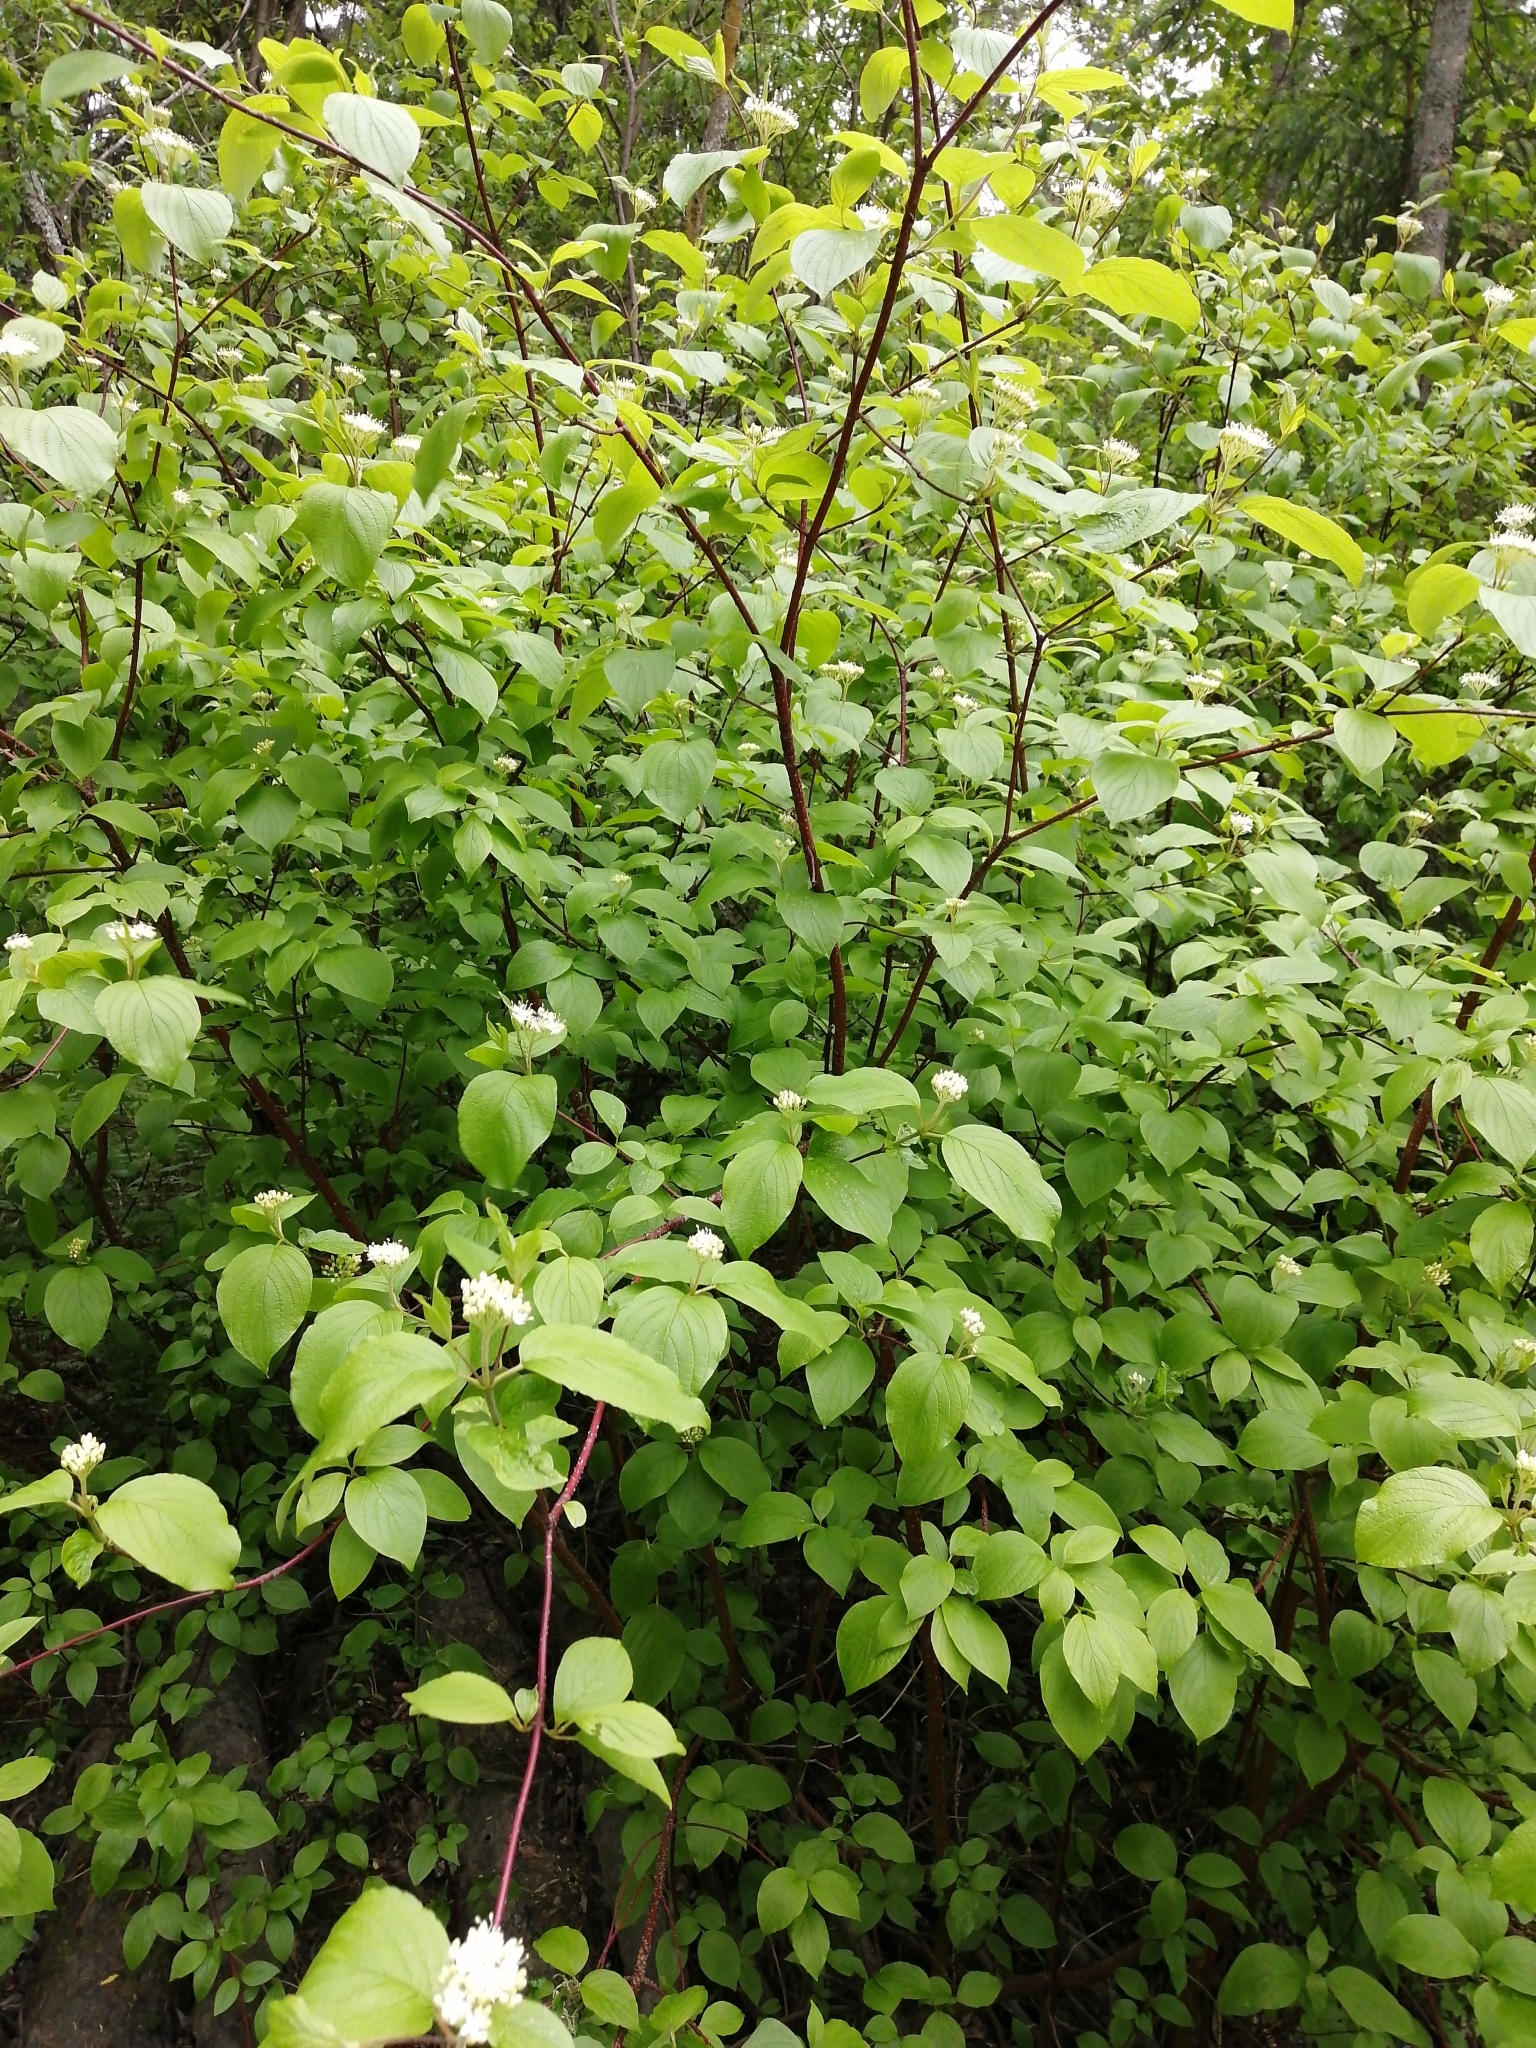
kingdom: Plantae
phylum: Tracheophyta
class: Magnoliopsida
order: Cornales
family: Cornaceae
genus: Cornus
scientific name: Cornus alba
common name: White dogwood
